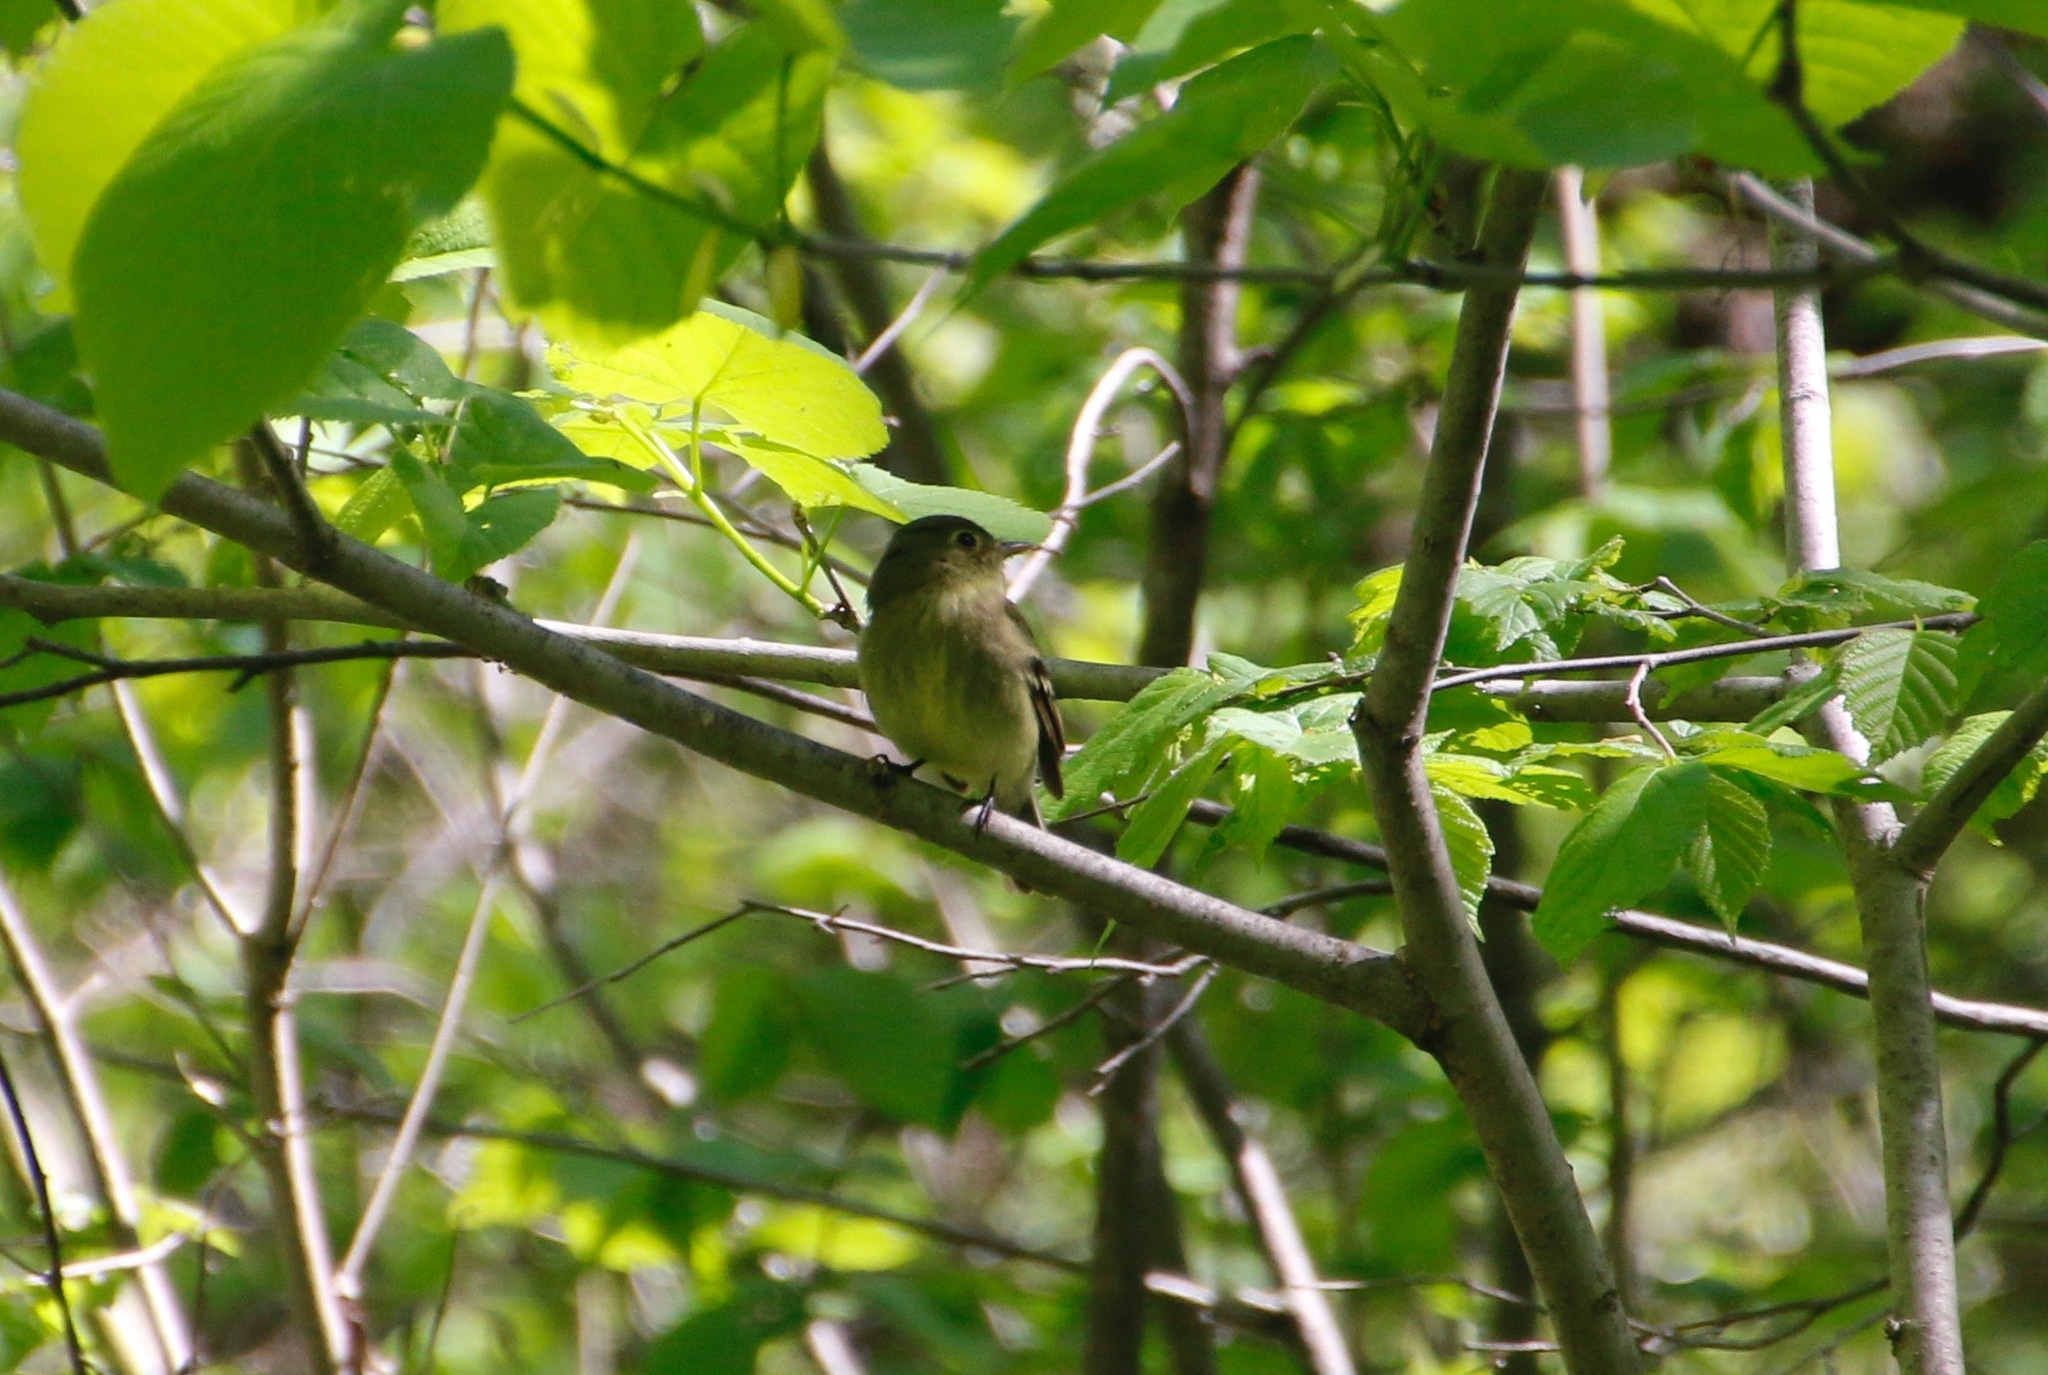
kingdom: Animalia
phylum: Chordata
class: Aves
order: Passeriformes
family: Tyrannidae
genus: Empidonax
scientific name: Empidonax flaviventris
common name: Yellow-bellied flycatcher
